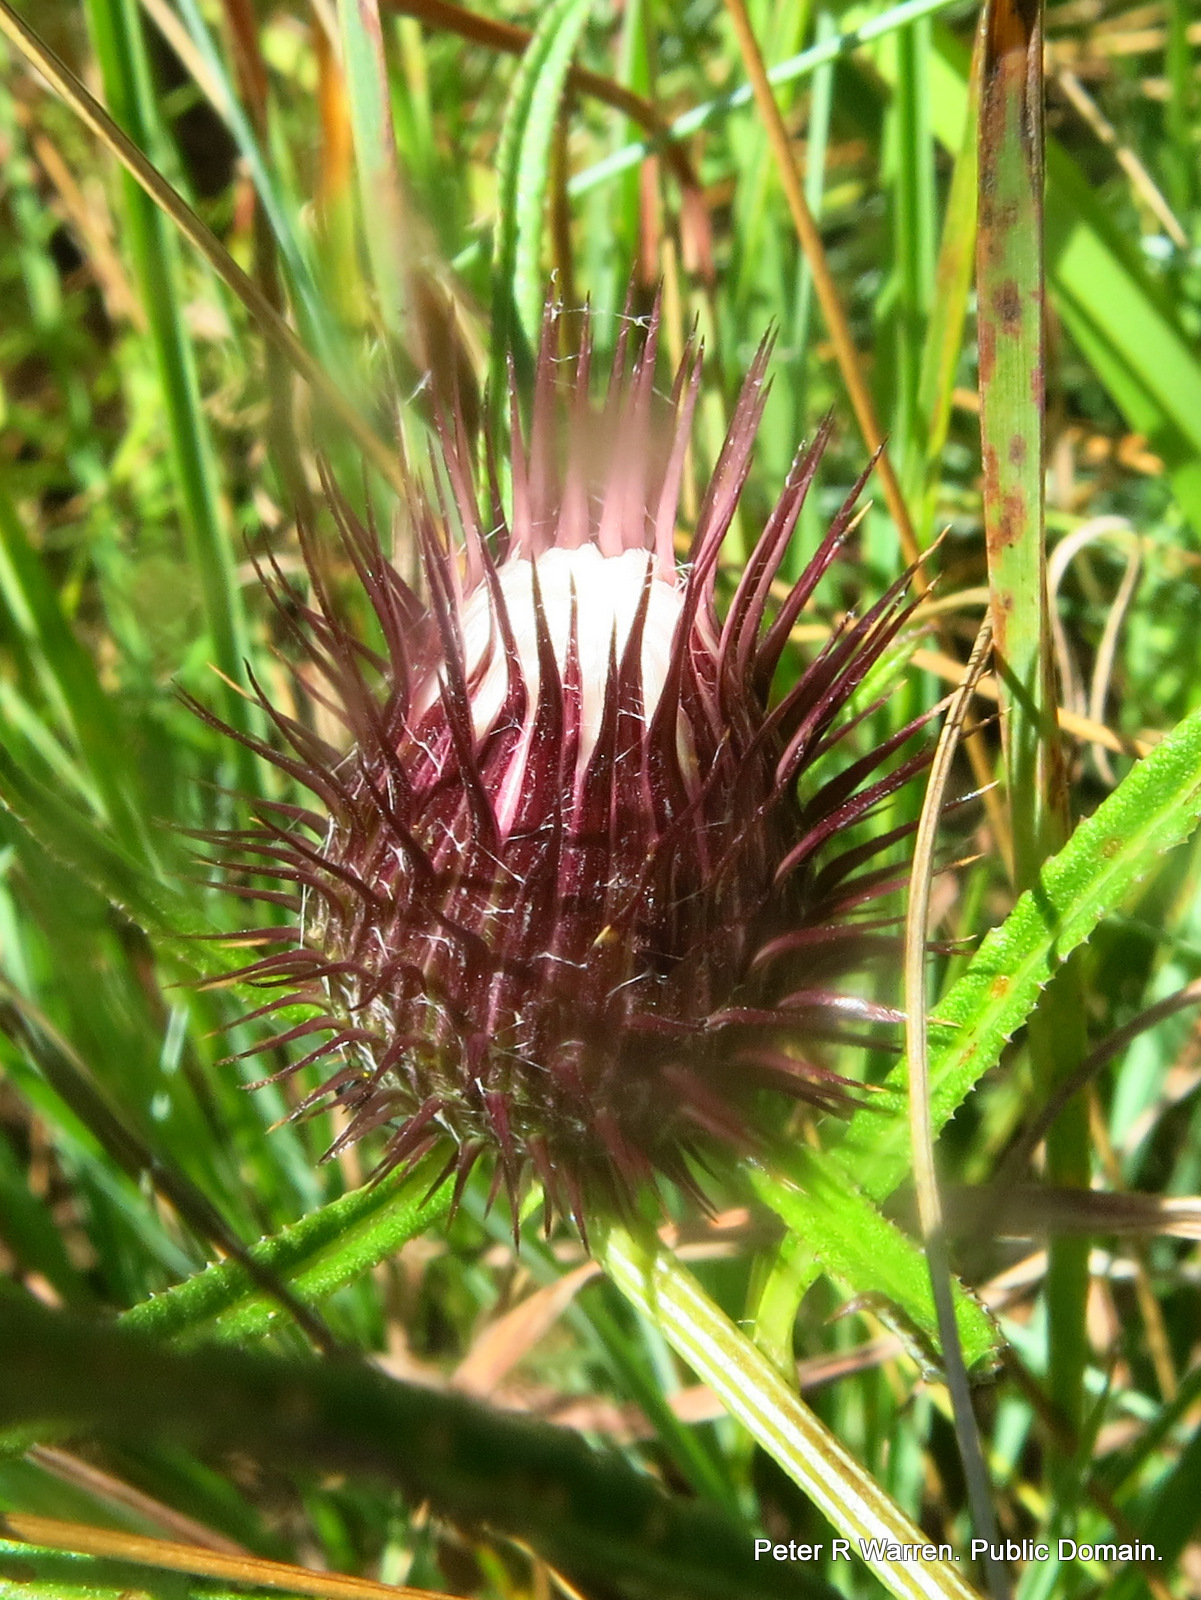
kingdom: Plantae
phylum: Tracheophyta
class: Magnoliopsida
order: Asterales
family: Asteraceae
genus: Dicoma
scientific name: Dicoma anomala
